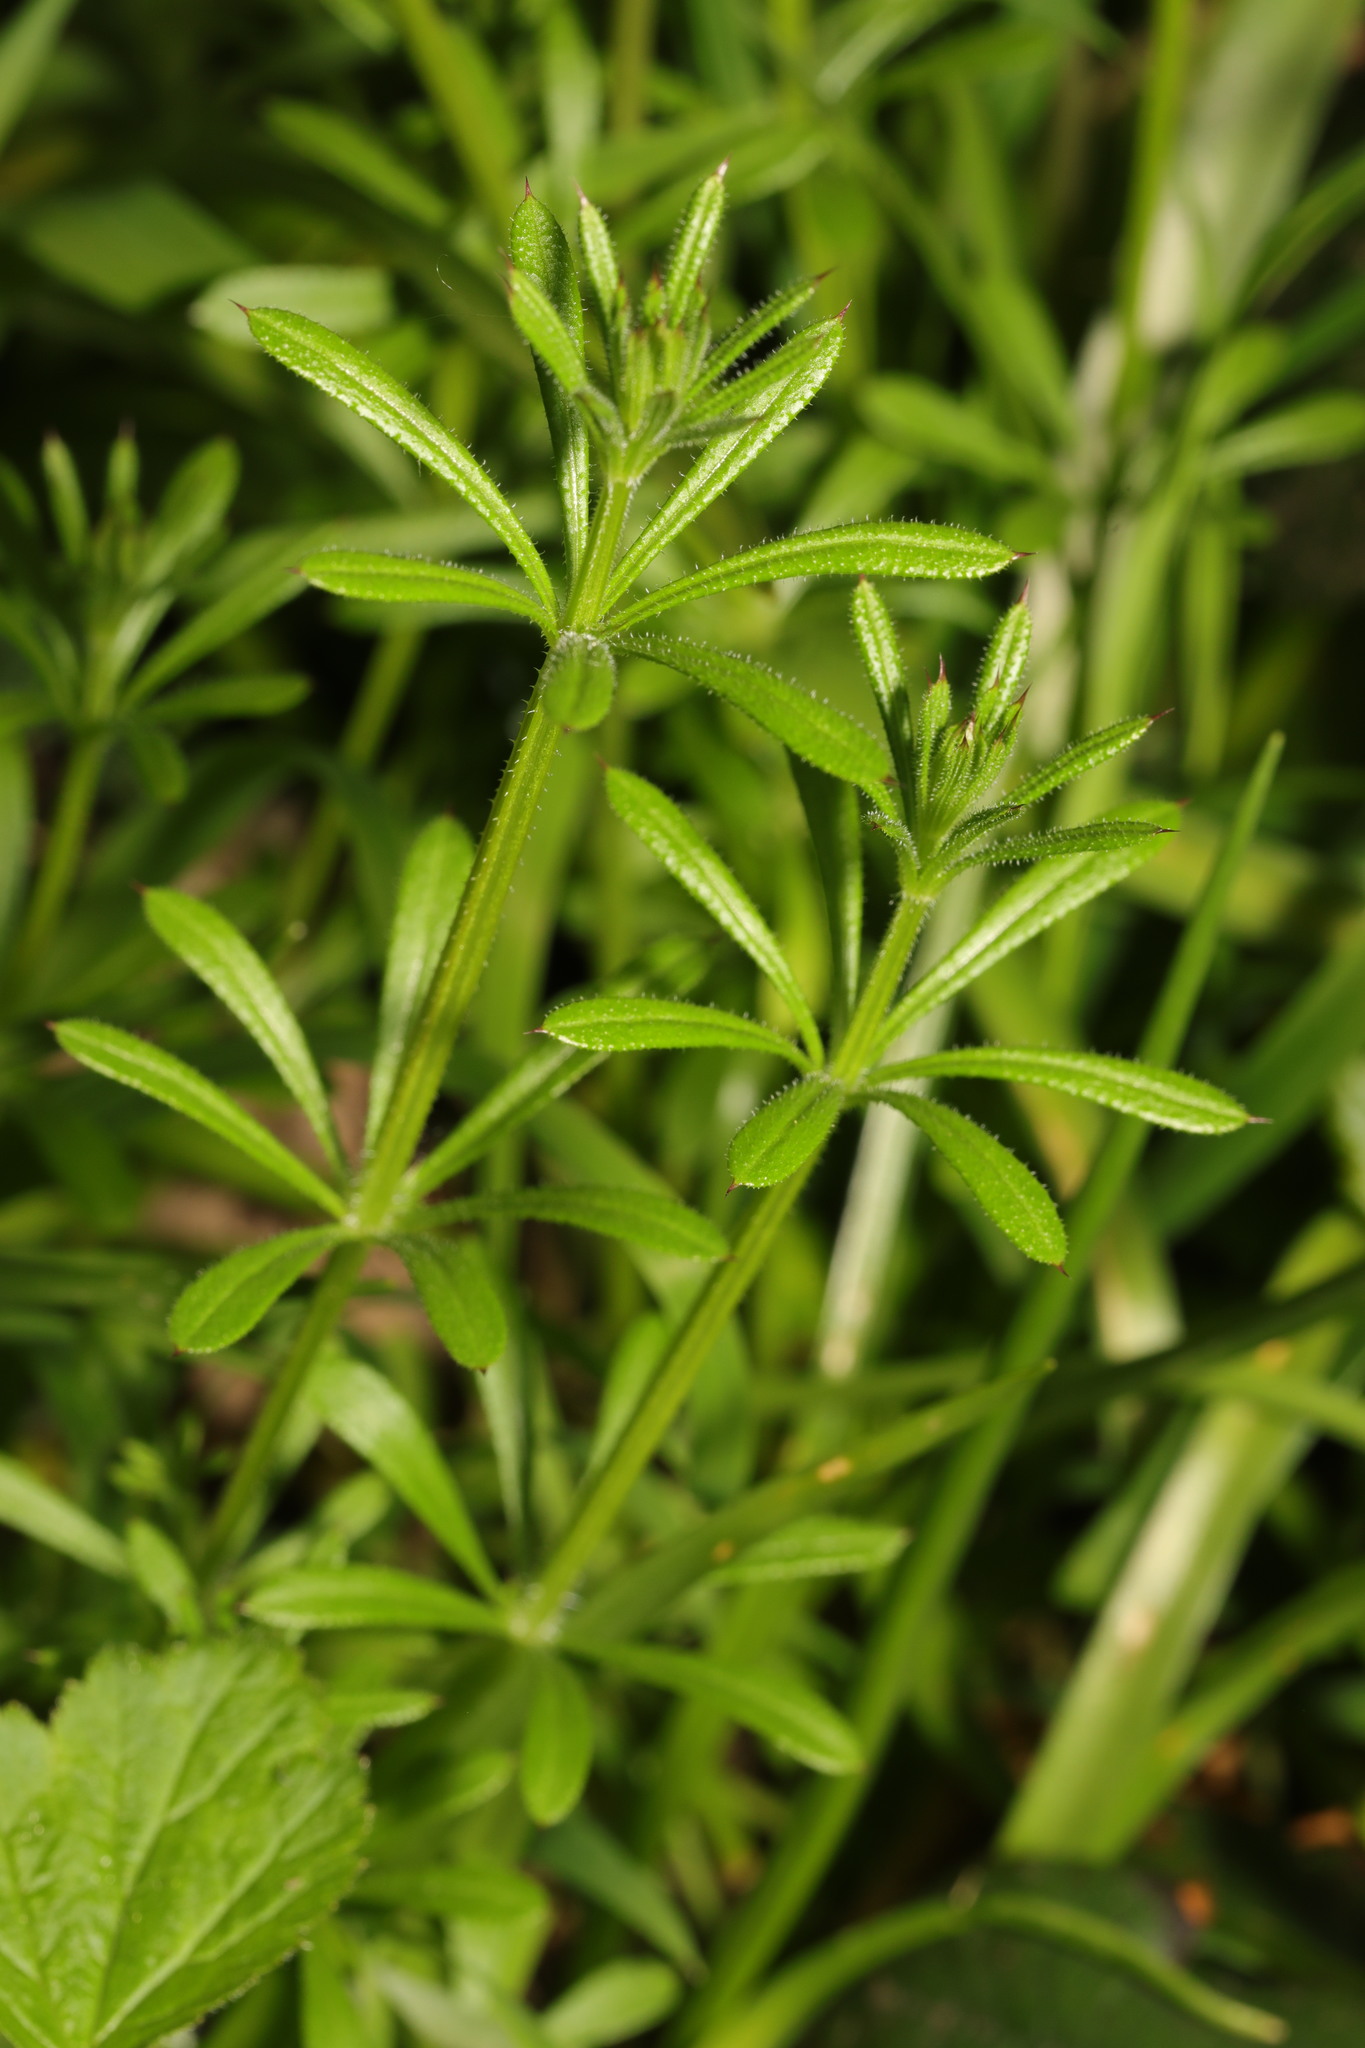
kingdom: Plantae
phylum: Tracheophyta
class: Magnoliopsida
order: Gentianales
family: Rubiaceae
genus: Galium
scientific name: Galium aparine
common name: Cleavers
